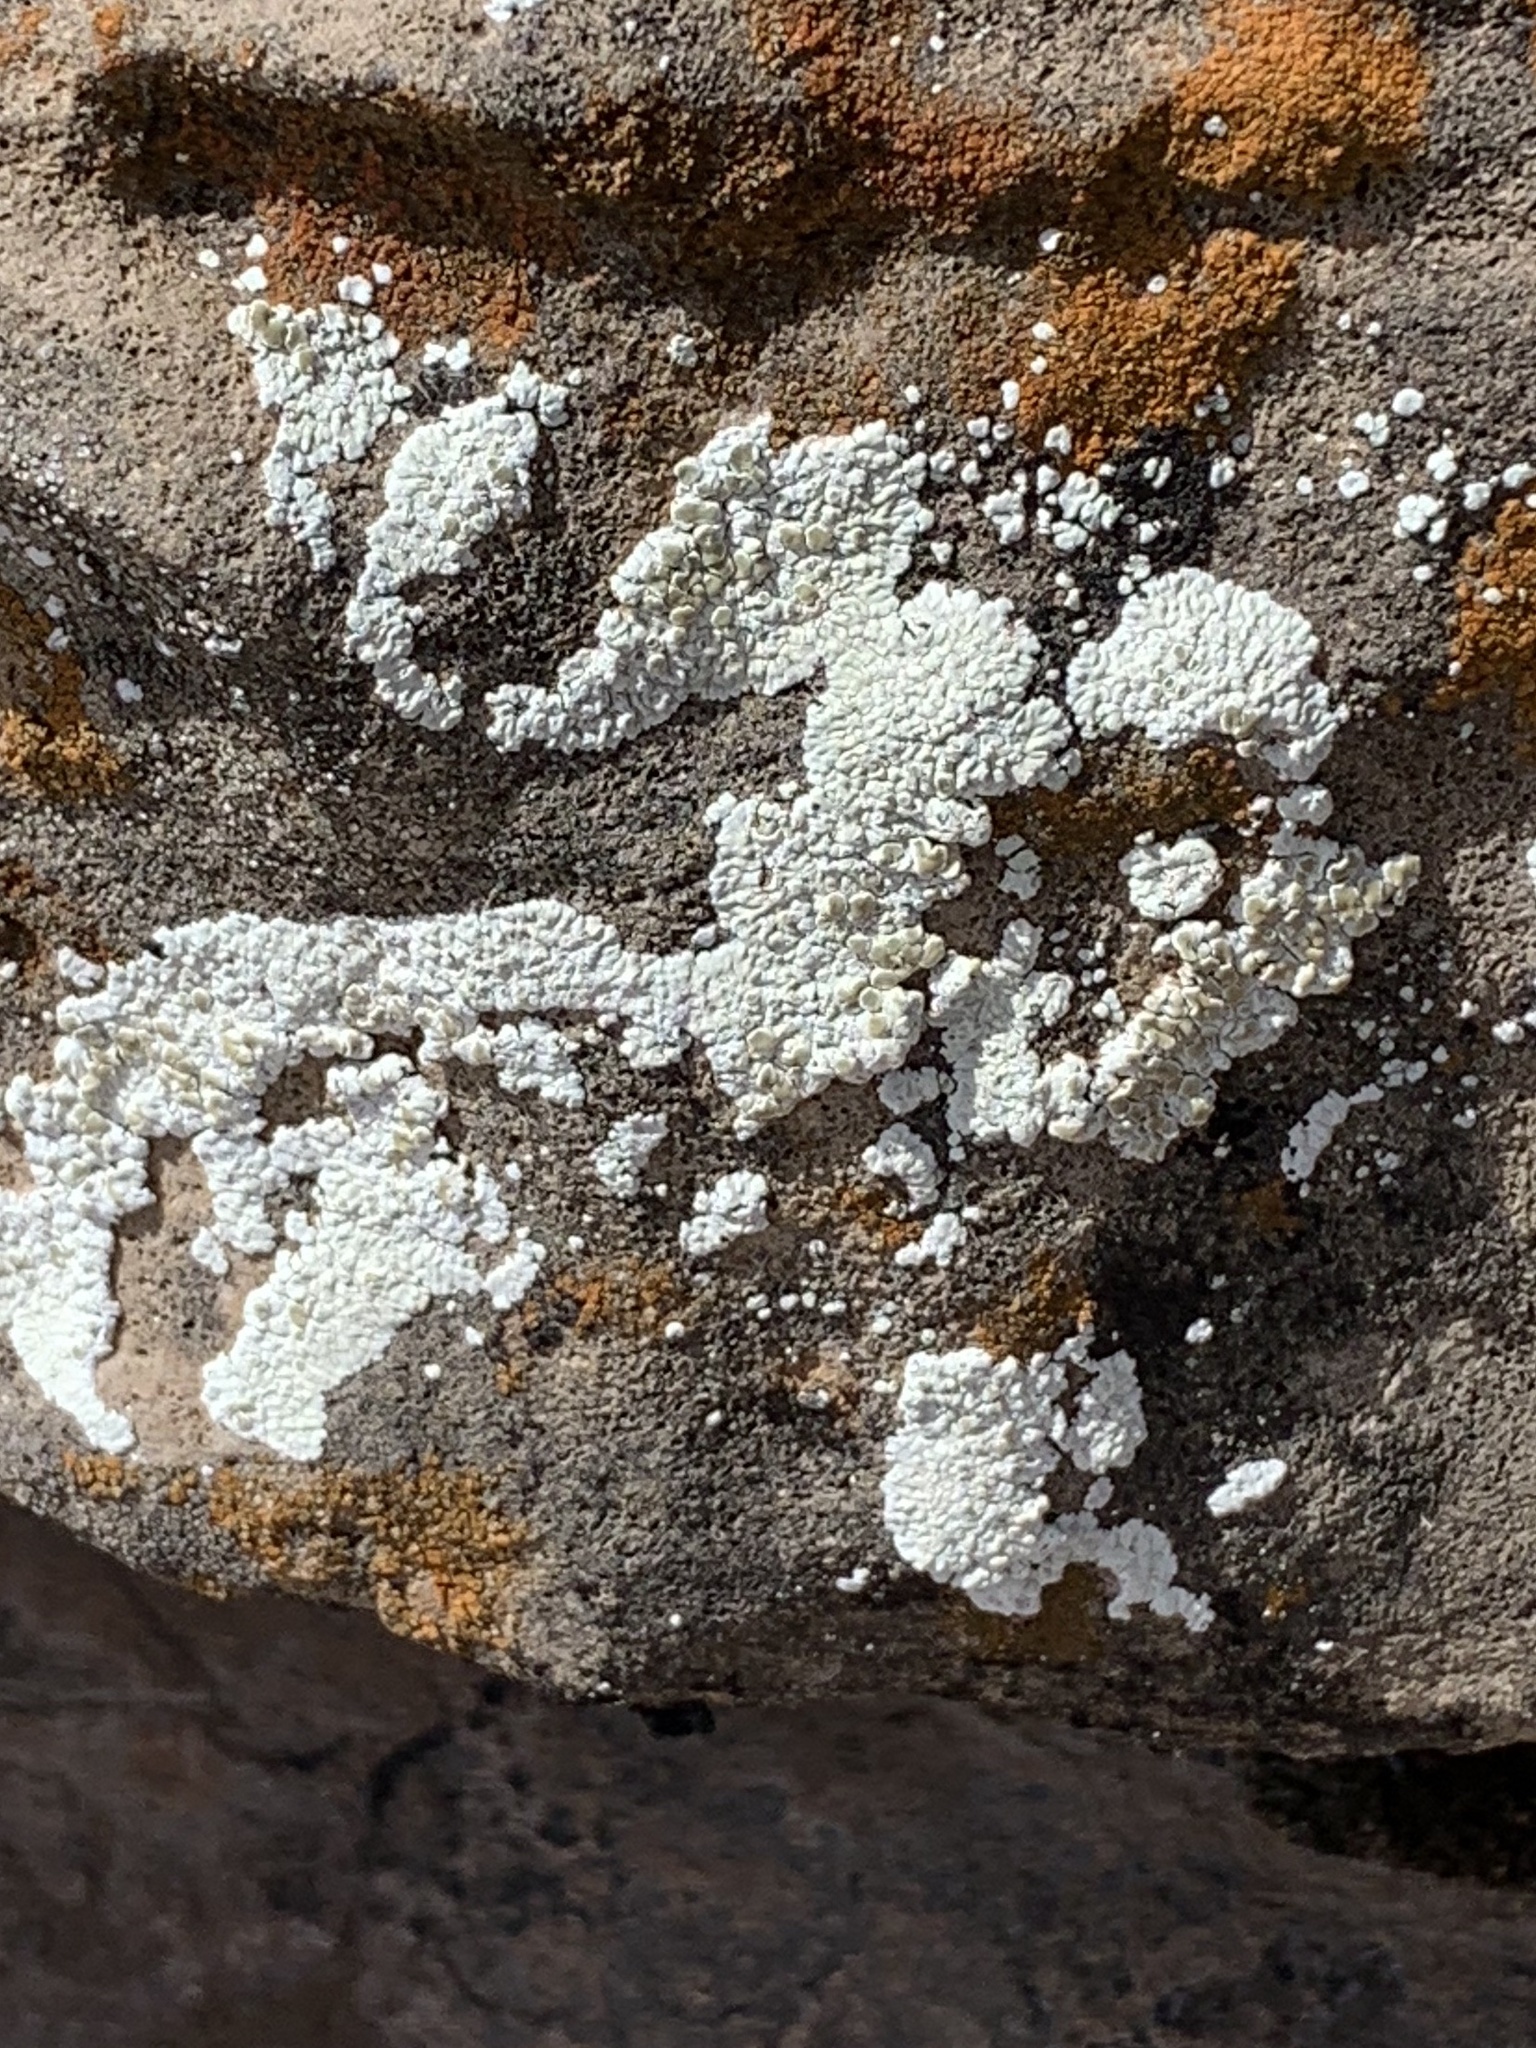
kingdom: Fungi
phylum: Ascomycota
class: Lecanoromycetes
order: Lecanorales
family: Lecanoraceae
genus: Protoparmeliopsis
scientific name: Protoparmeliopsis muralis
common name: Stonewall rim lichen
